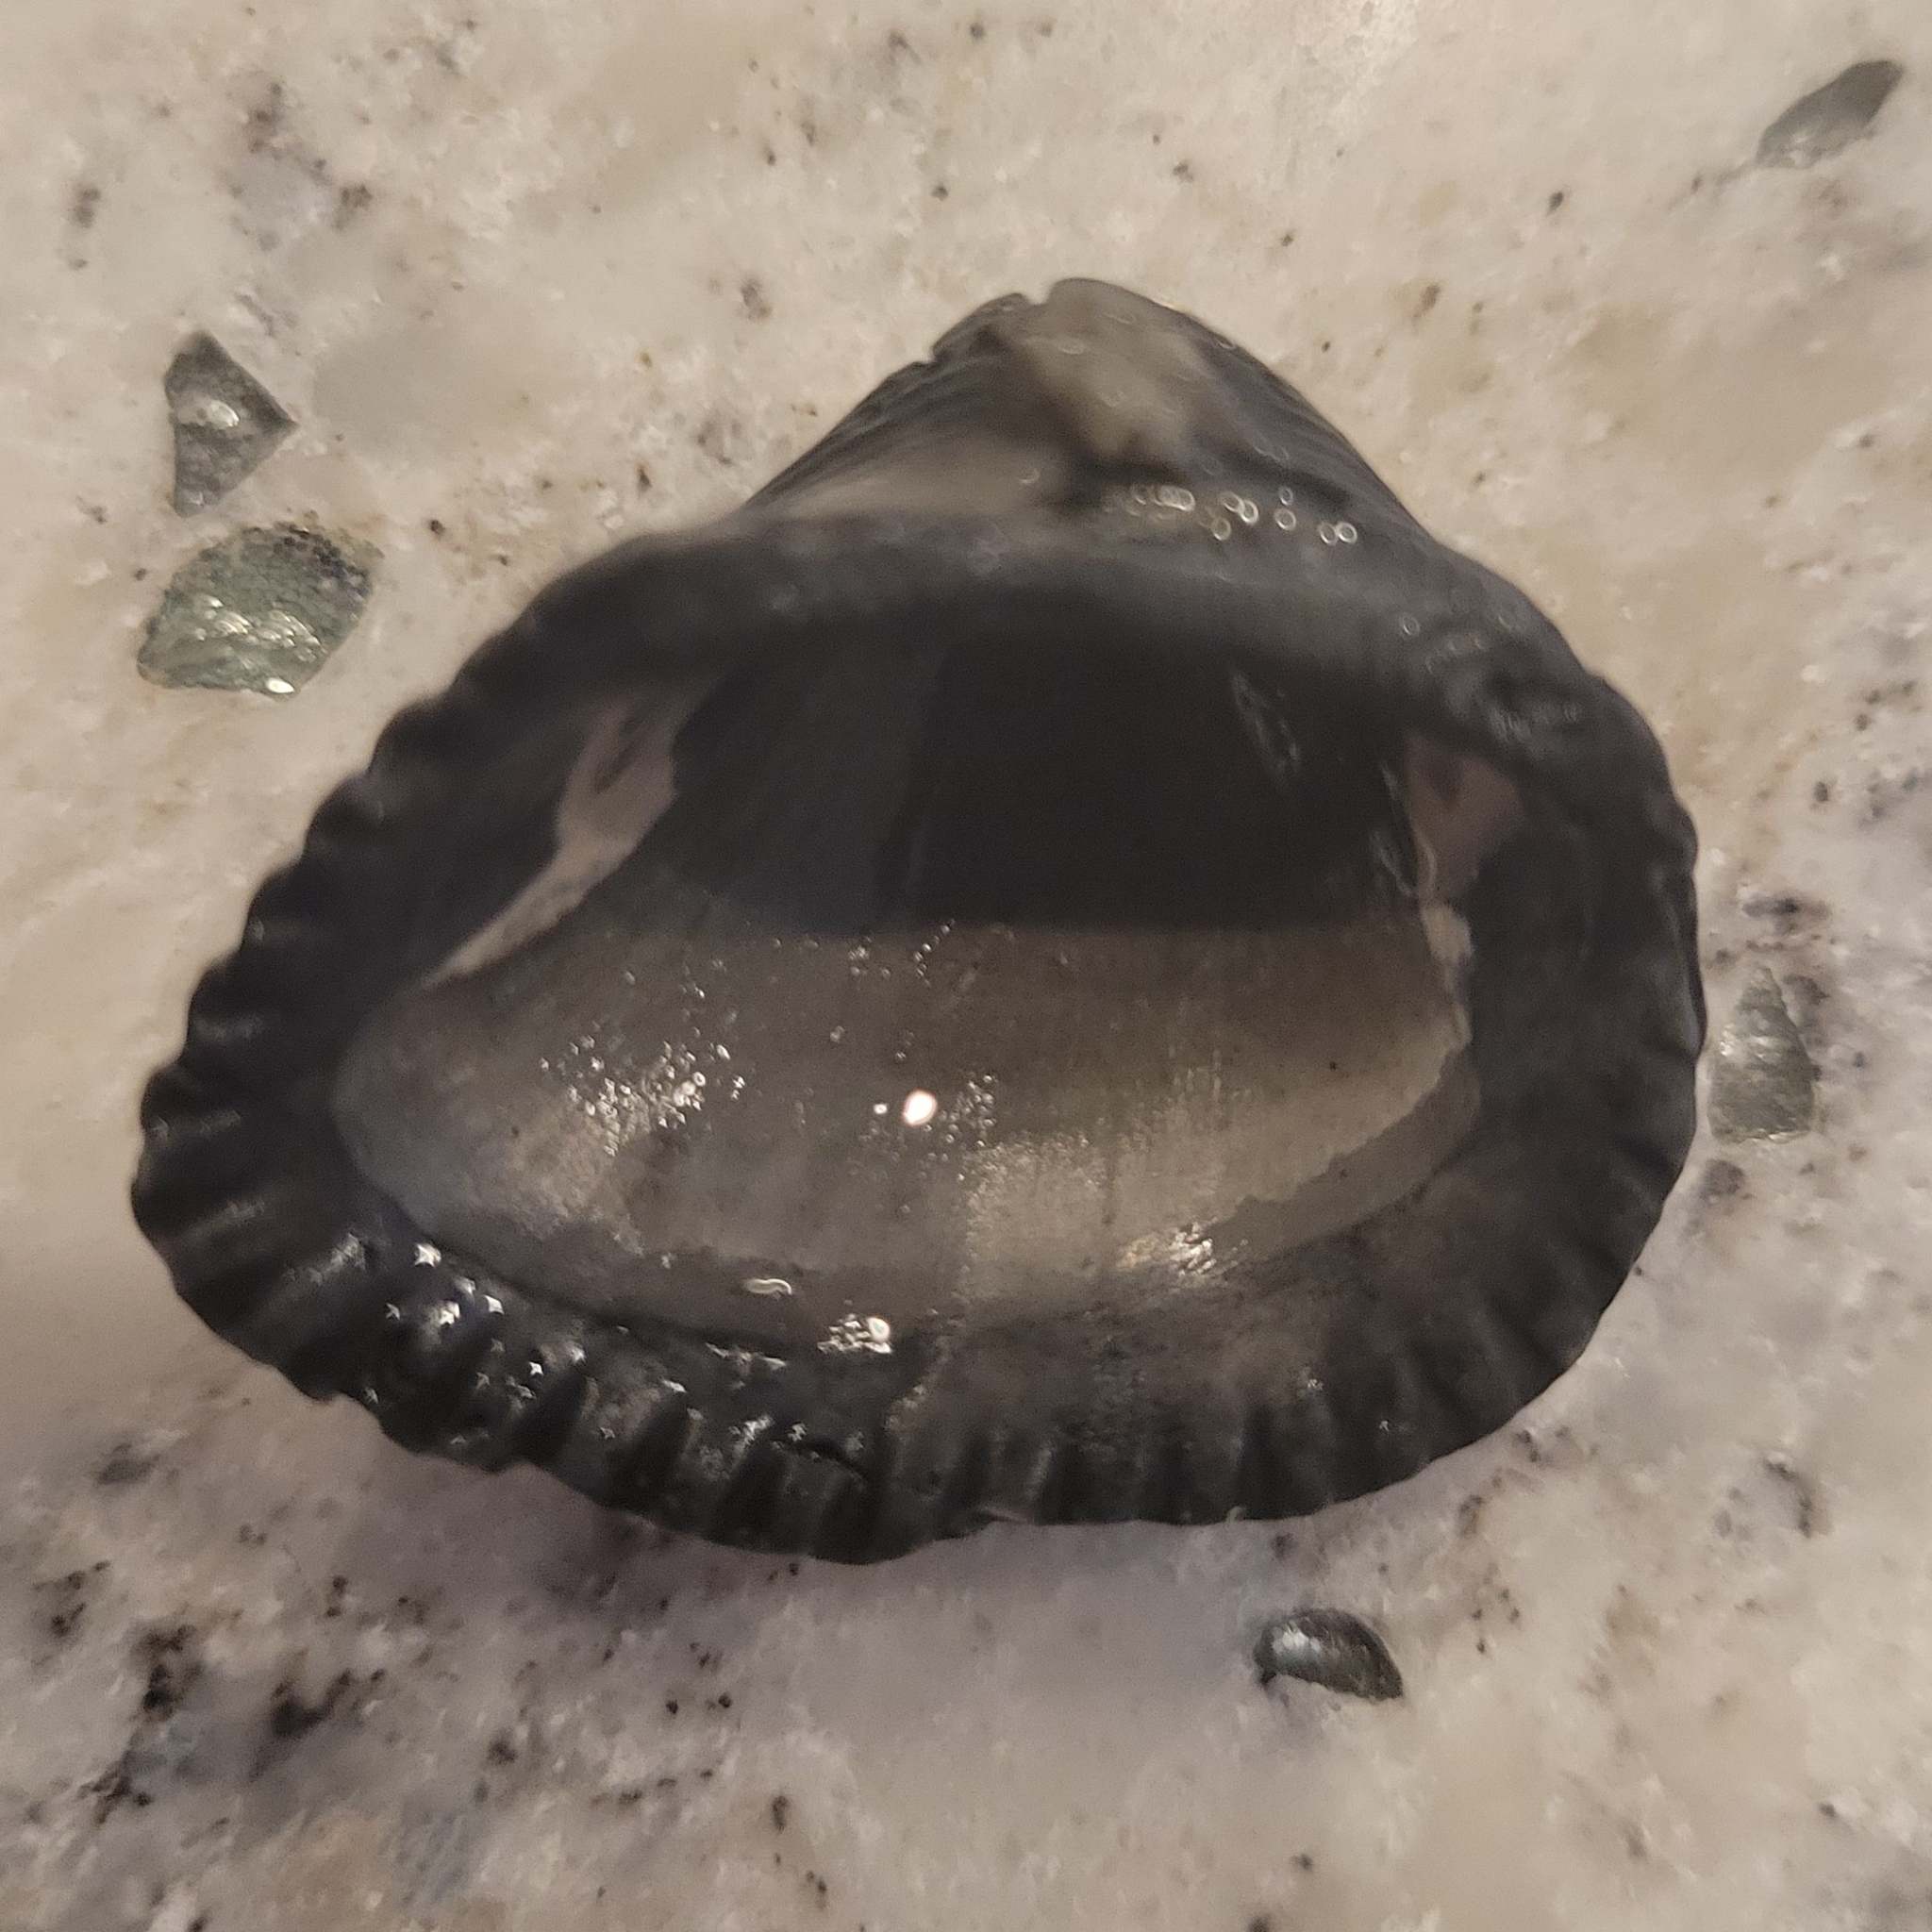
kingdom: Animalia
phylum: Mollusca
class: Bivalvia
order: Arcida
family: Noetiidae
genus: Noetia
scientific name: Noetia ponderosa
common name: Ponderous ark
